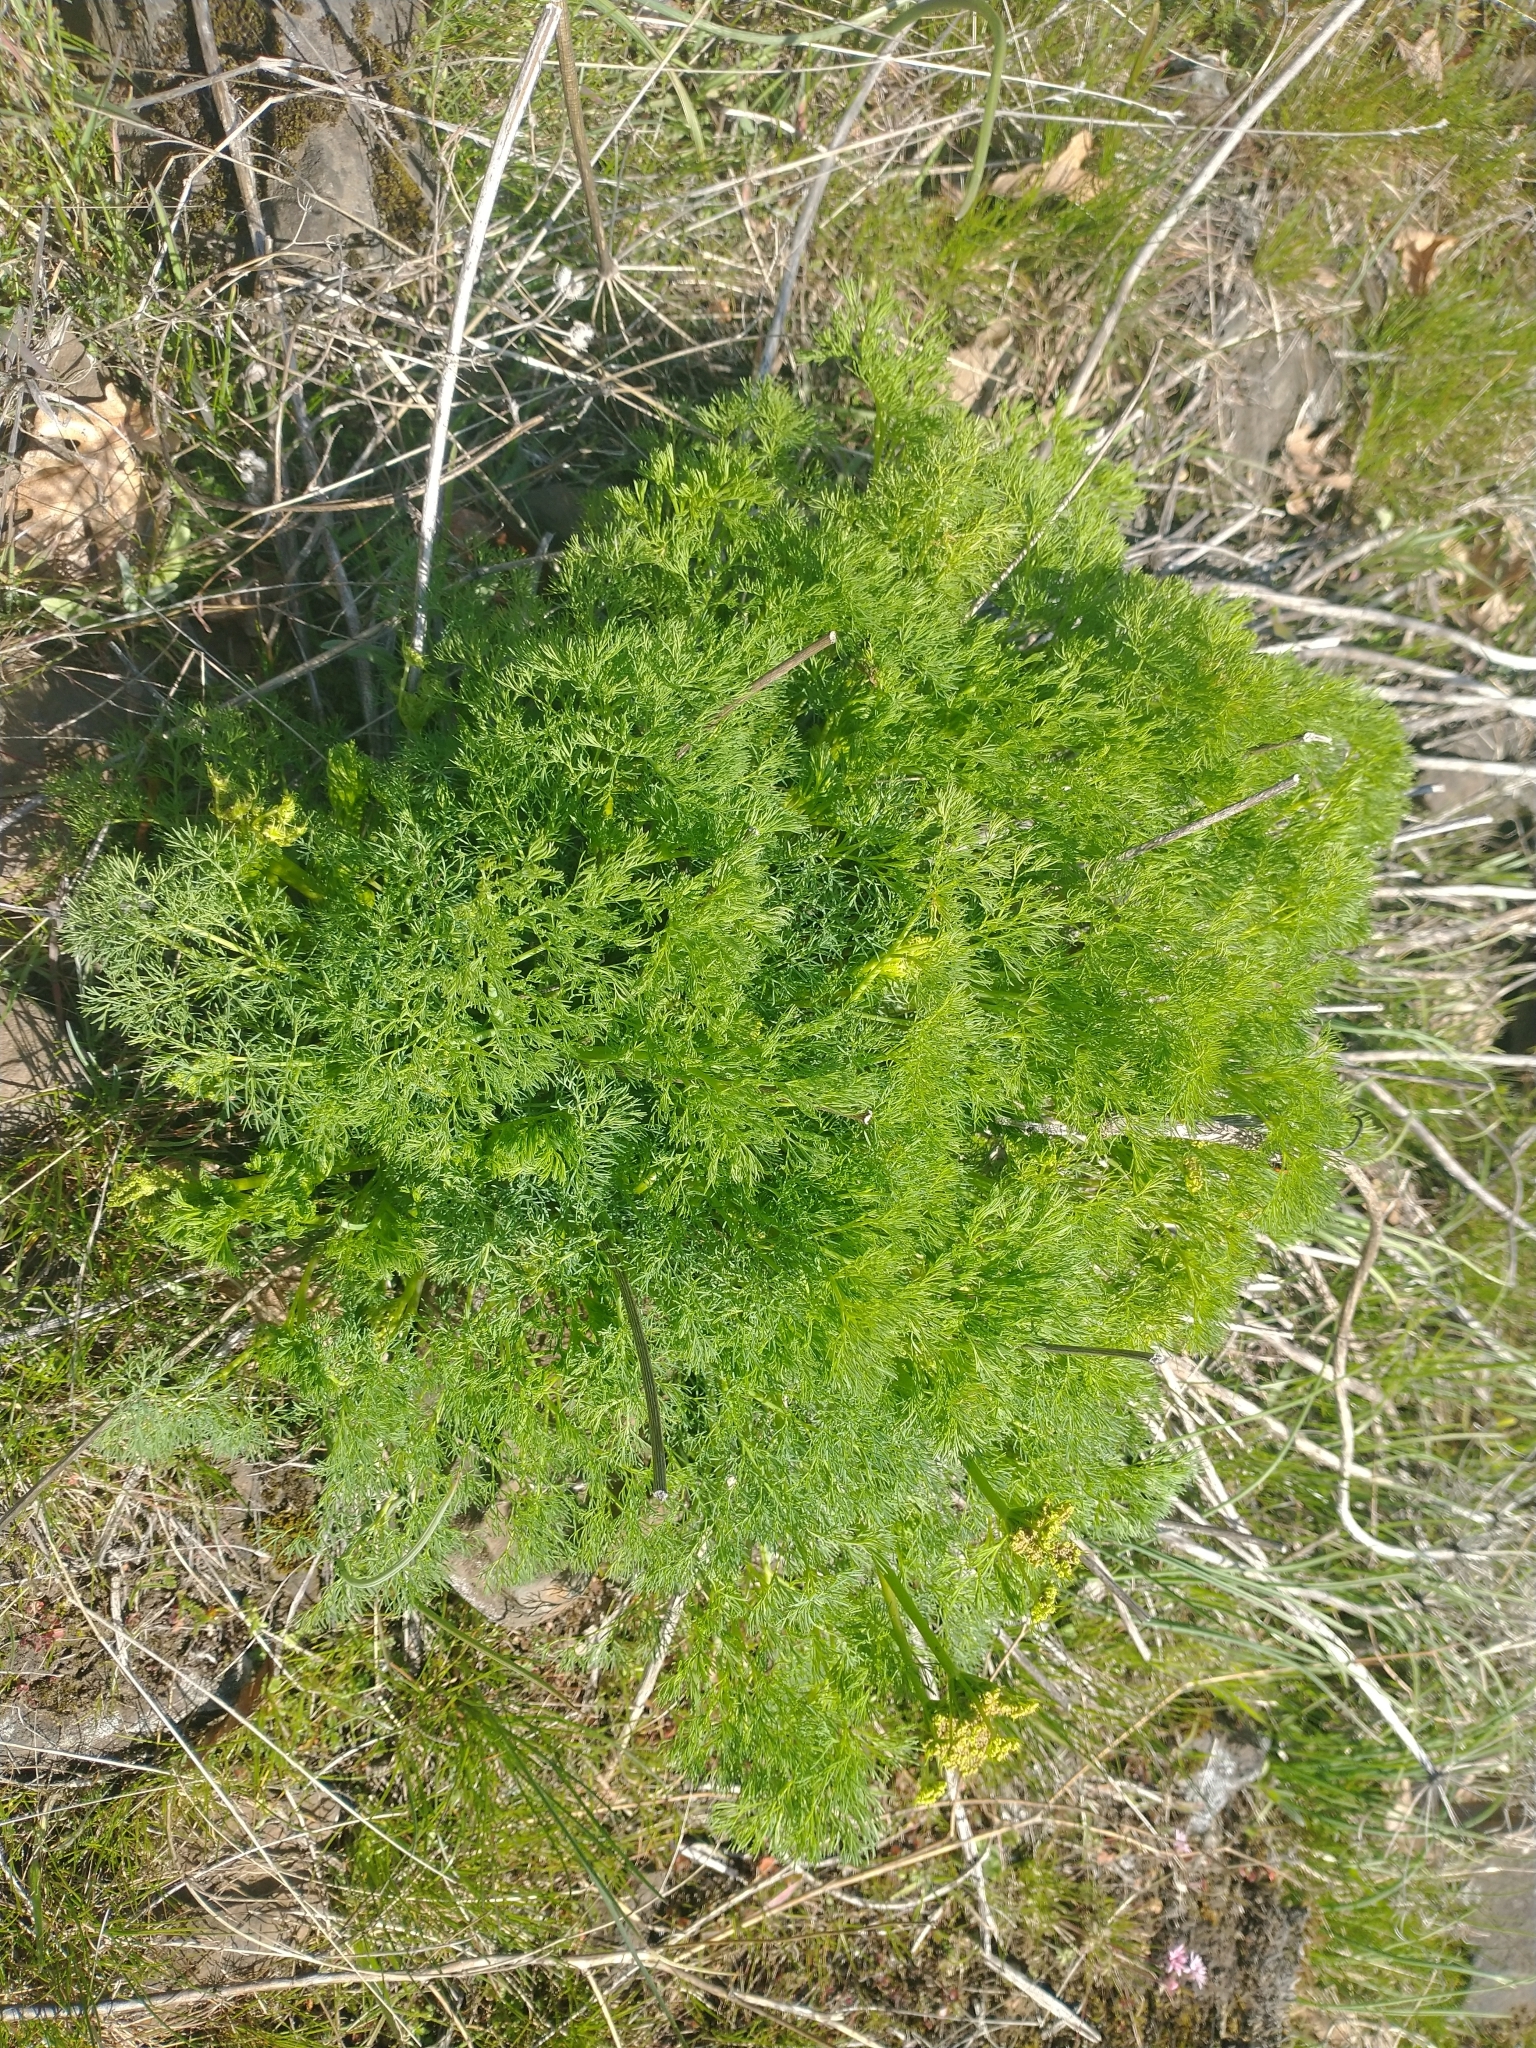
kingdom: Plantae
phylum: Tracheophyta
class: Magnoliopsida
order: Apiales
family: Apiaceae
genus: Lomatium
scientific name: Lomatium klickitatense
